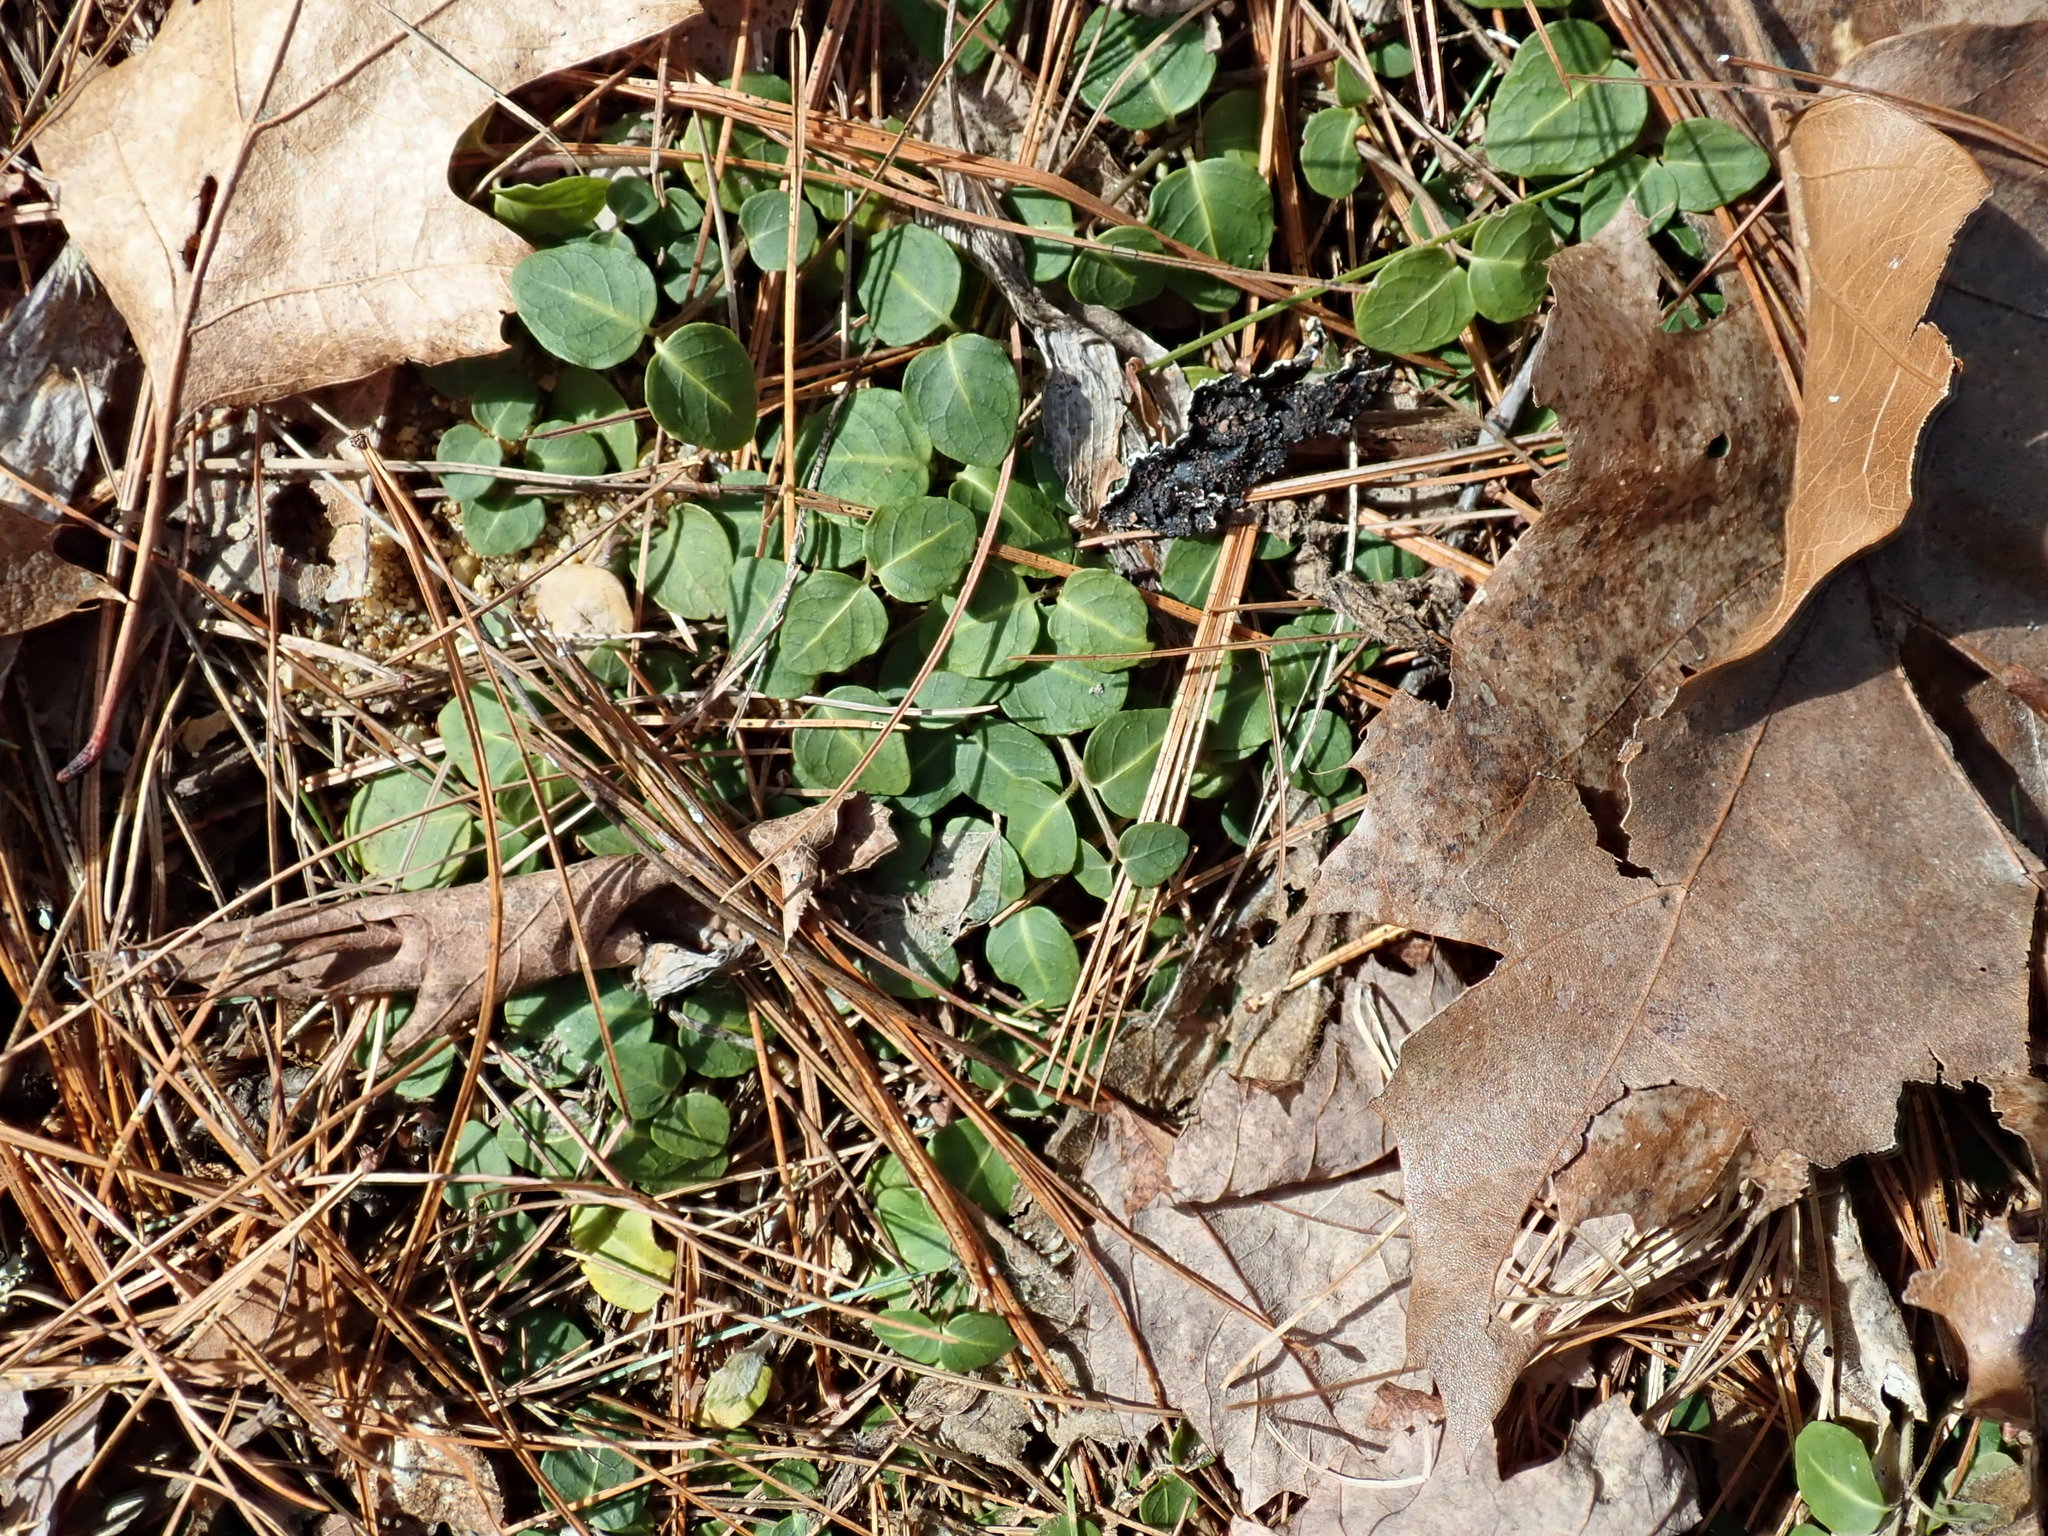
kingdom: Plantae
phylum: Tracheophyta
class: Magnoliopsida
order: Gentianales
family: Rubiaceae
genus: Mitchella
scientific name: Mitchella repens
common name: Partridge-berry
